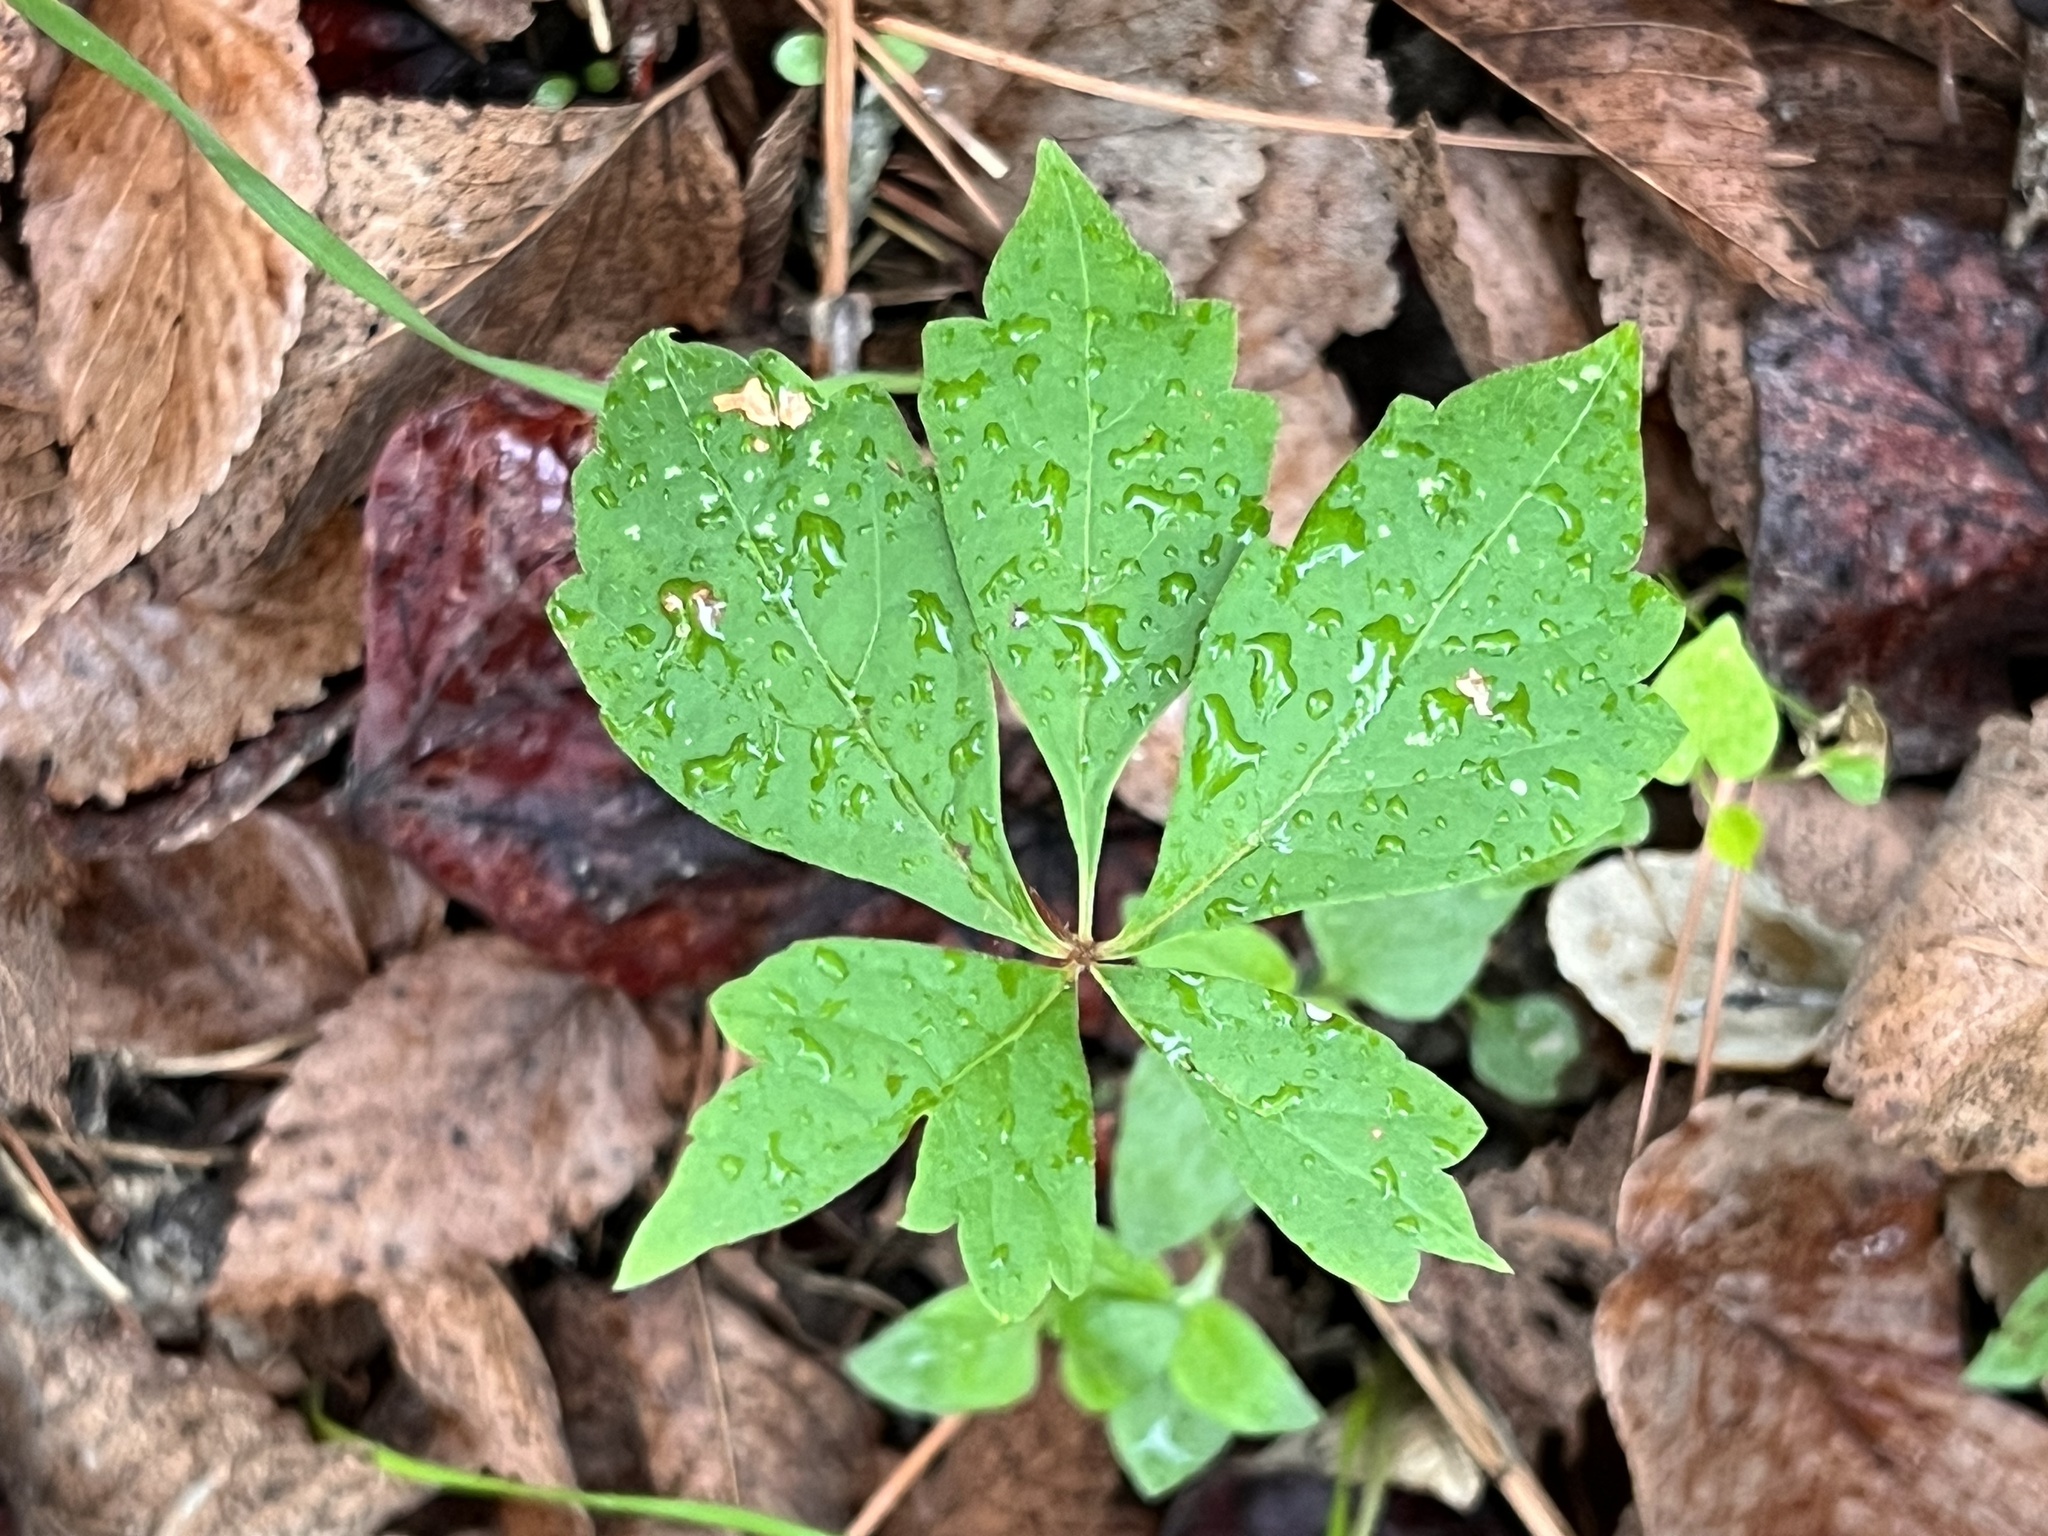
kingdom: Plantae
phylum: Tracheophyta
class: Magnoliopsida
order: Vitales
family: Vitaceae
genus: Parthenocissus
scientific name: Parthenocissus quinquefolia
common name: Virginia-creeper
